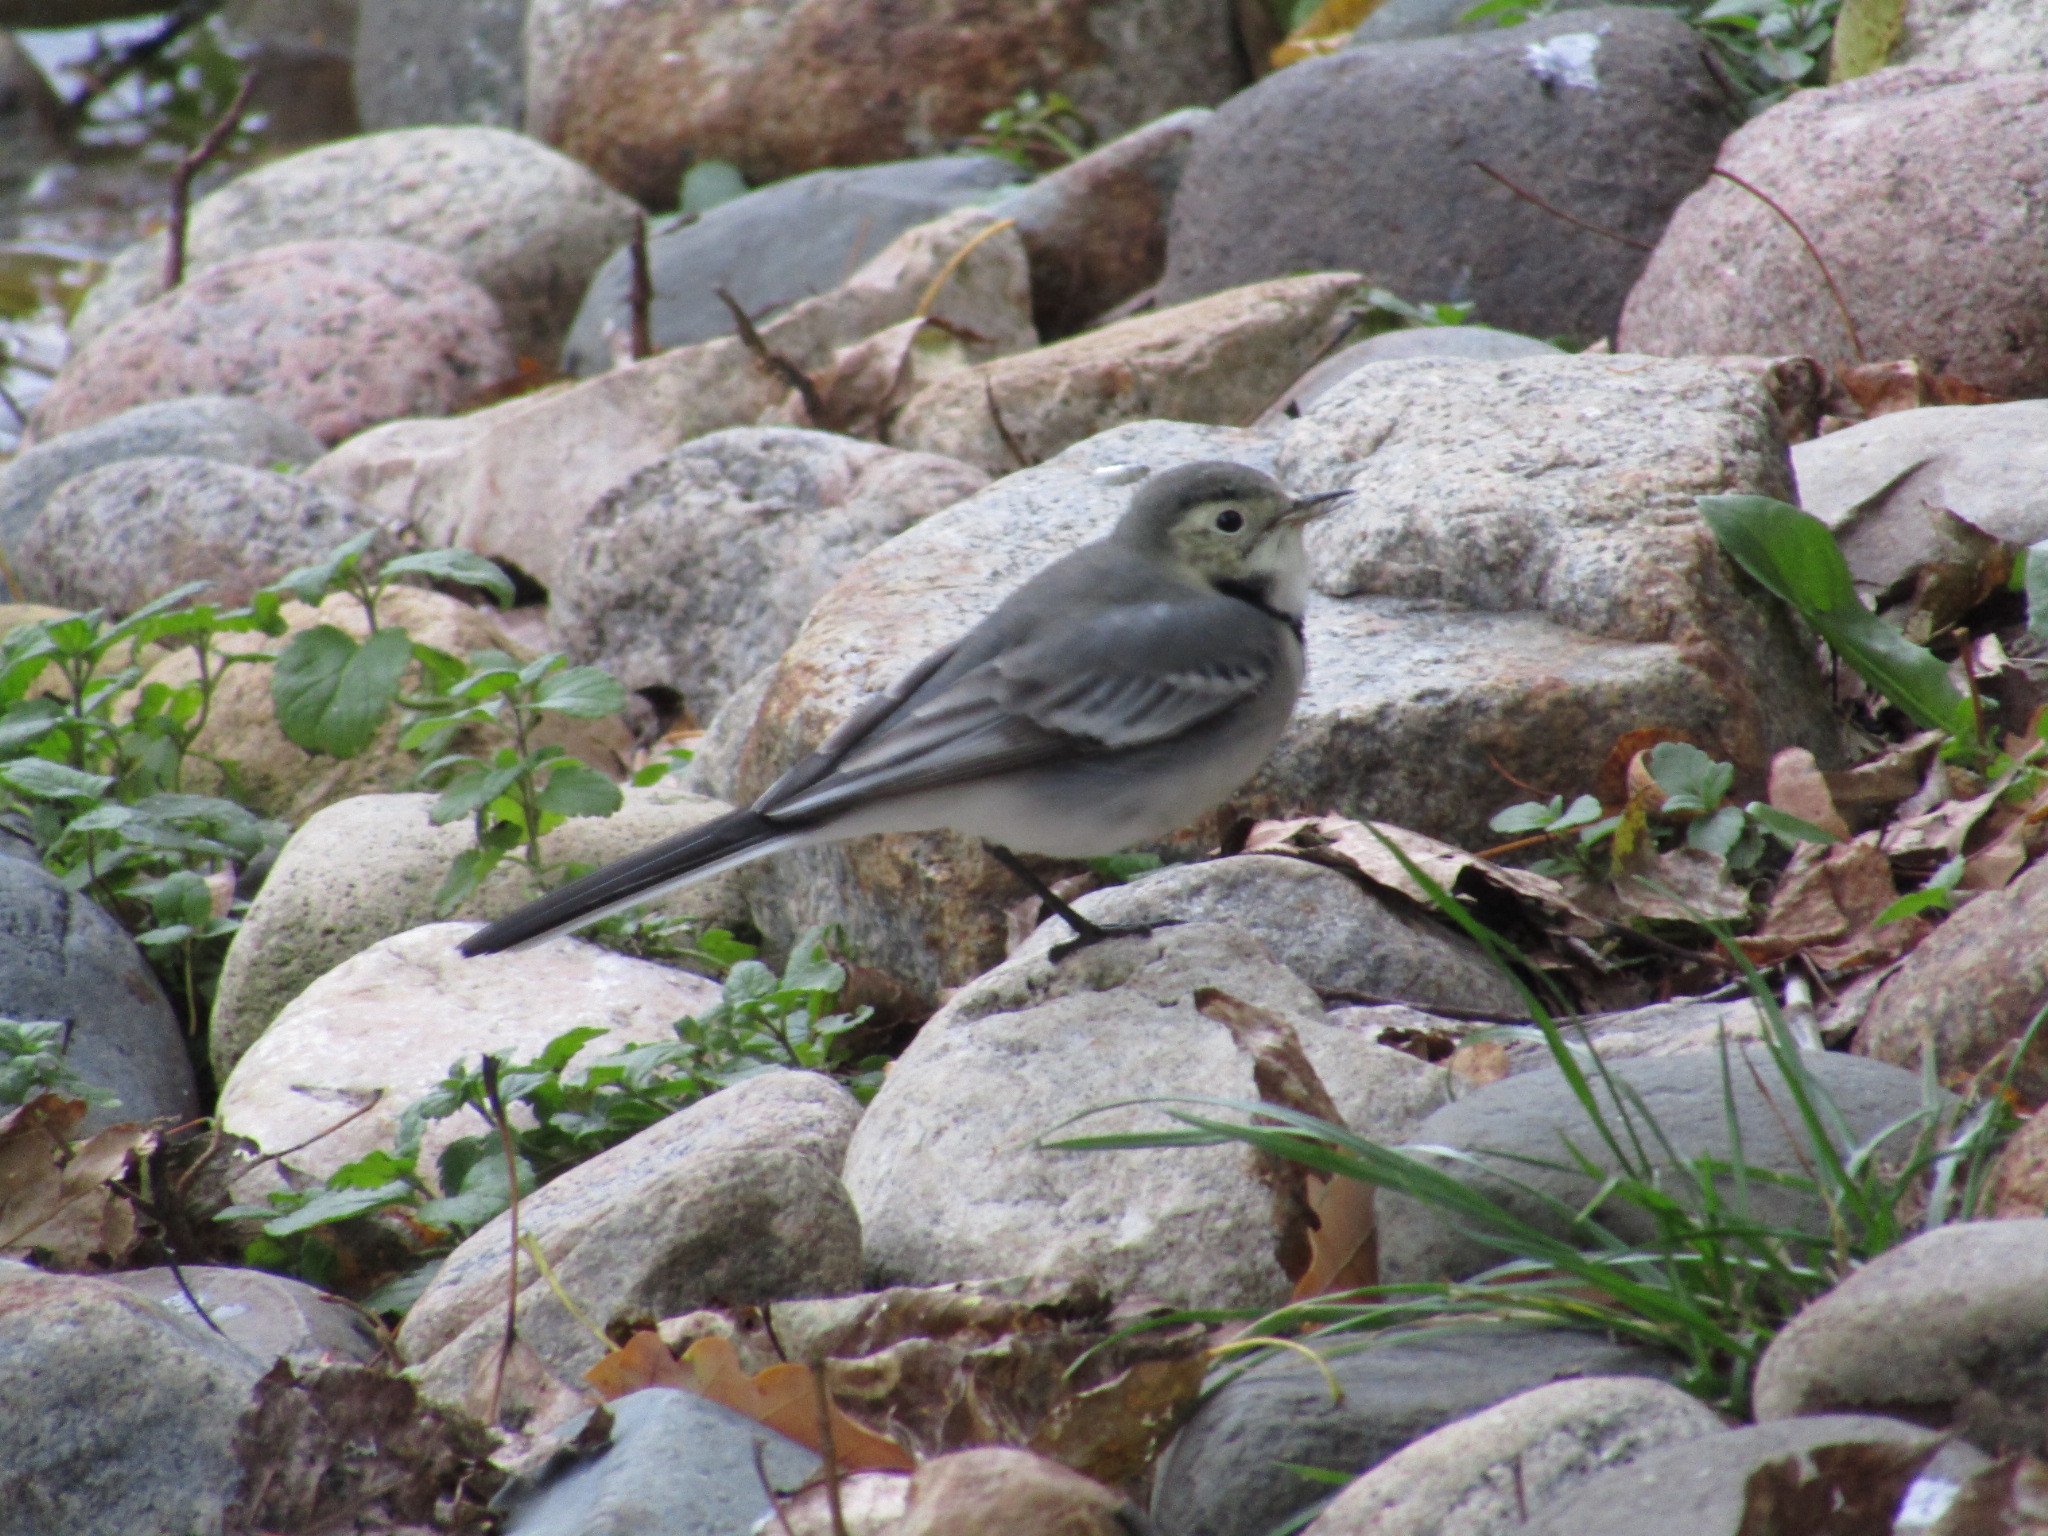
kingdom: Animalia
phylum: Chordata
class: Aves
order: Passeriformes
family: Motacillidae
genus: Motacilla
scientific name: Motacilla alba
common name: White wagtail
